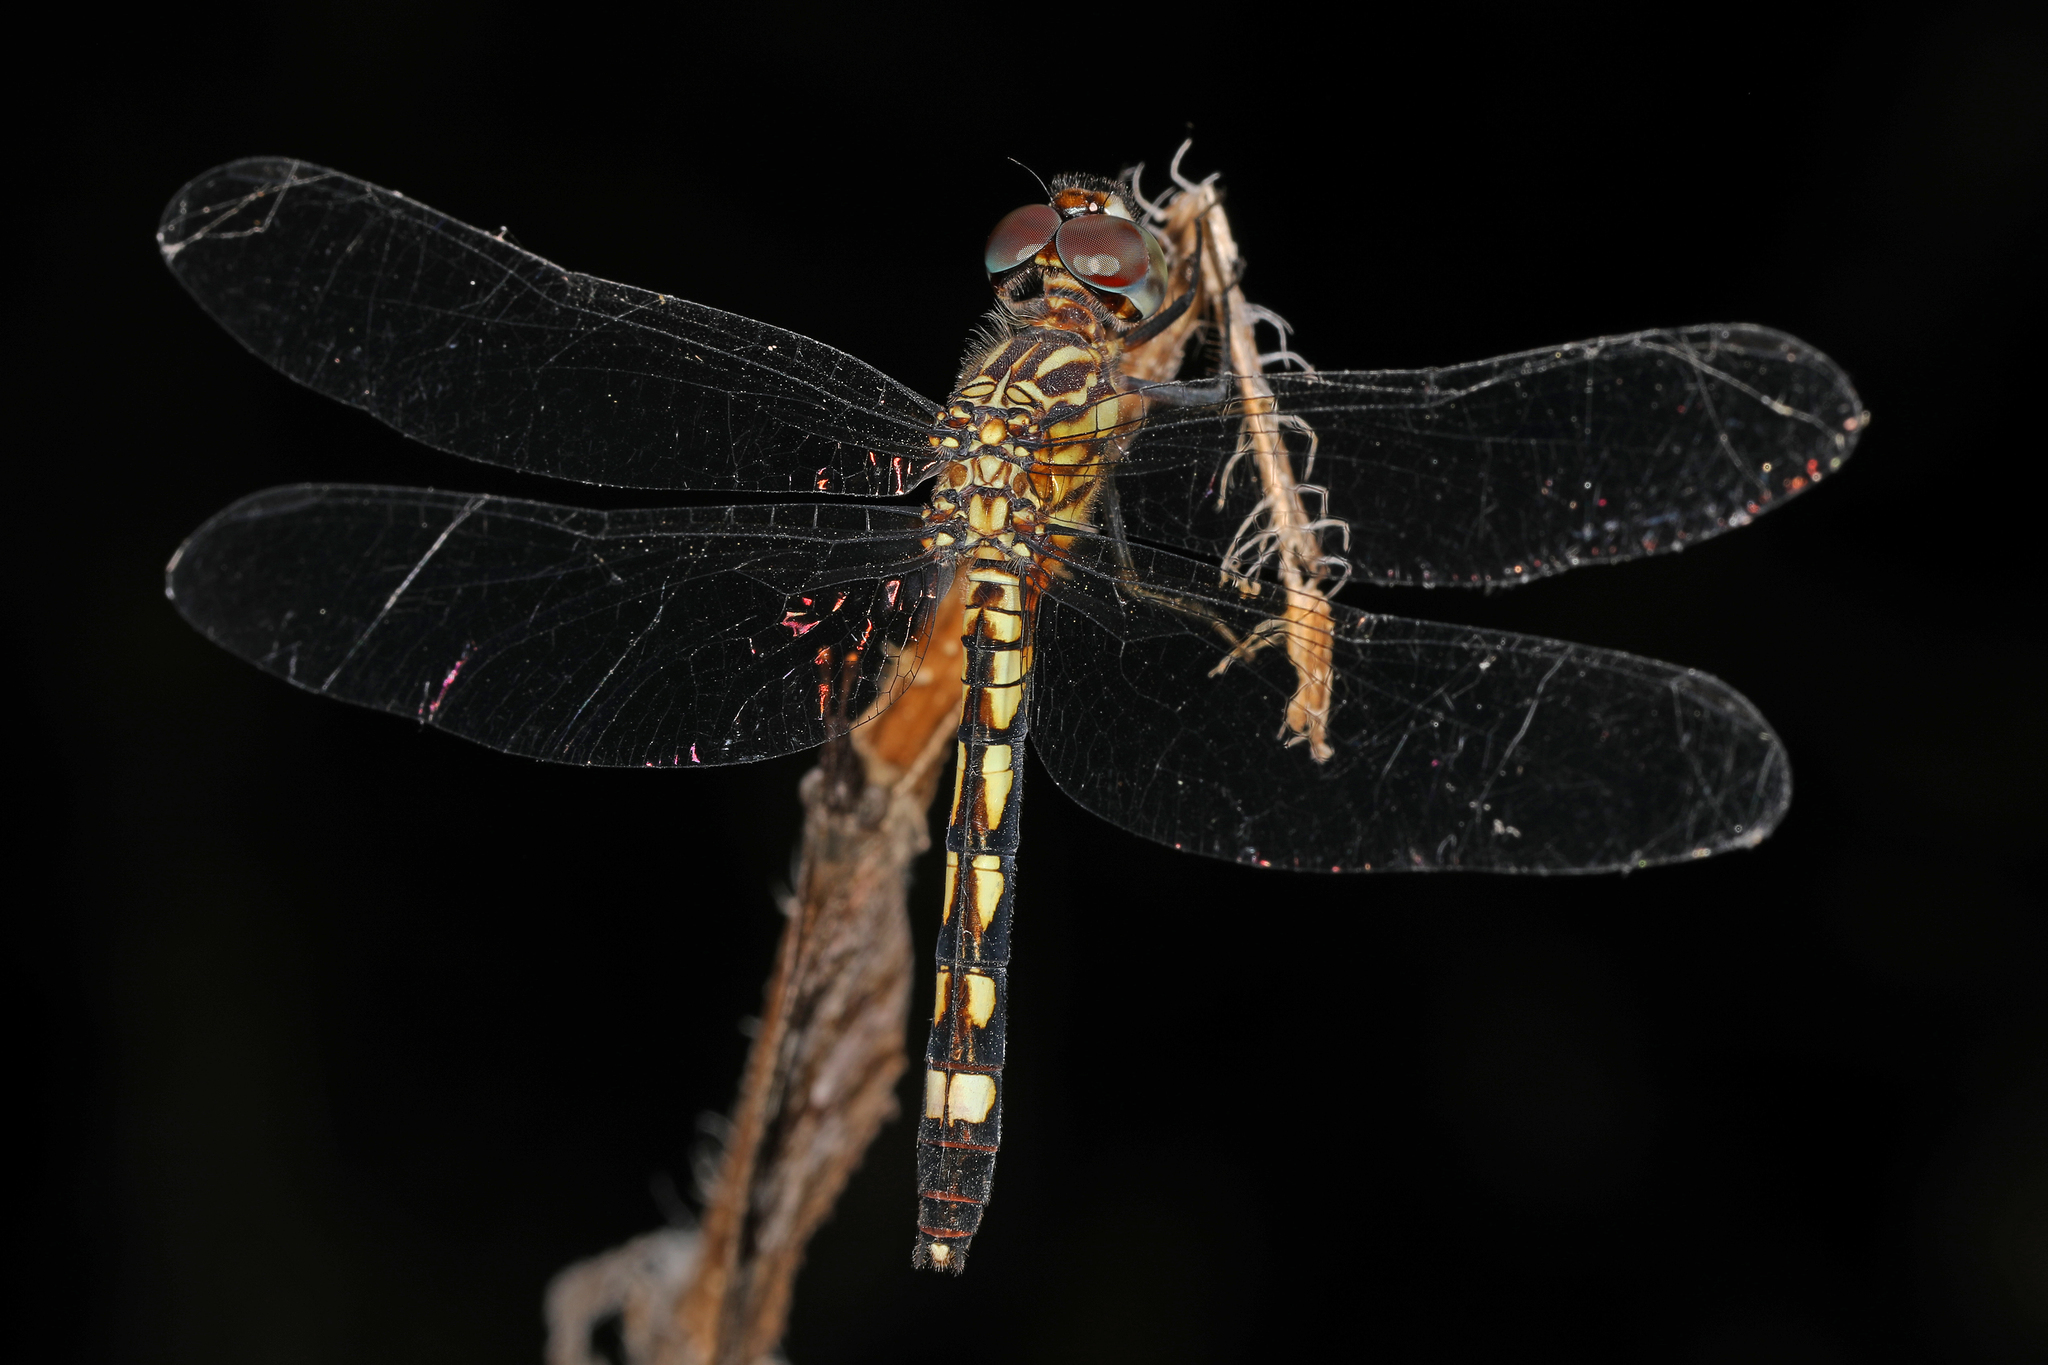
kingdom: Animalia
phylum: Arthropoda
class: Insecta
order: Odonata
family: Libellulidae
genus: Micrathyria
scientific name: Micrathyria hagenii
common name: Thornbush dasher
